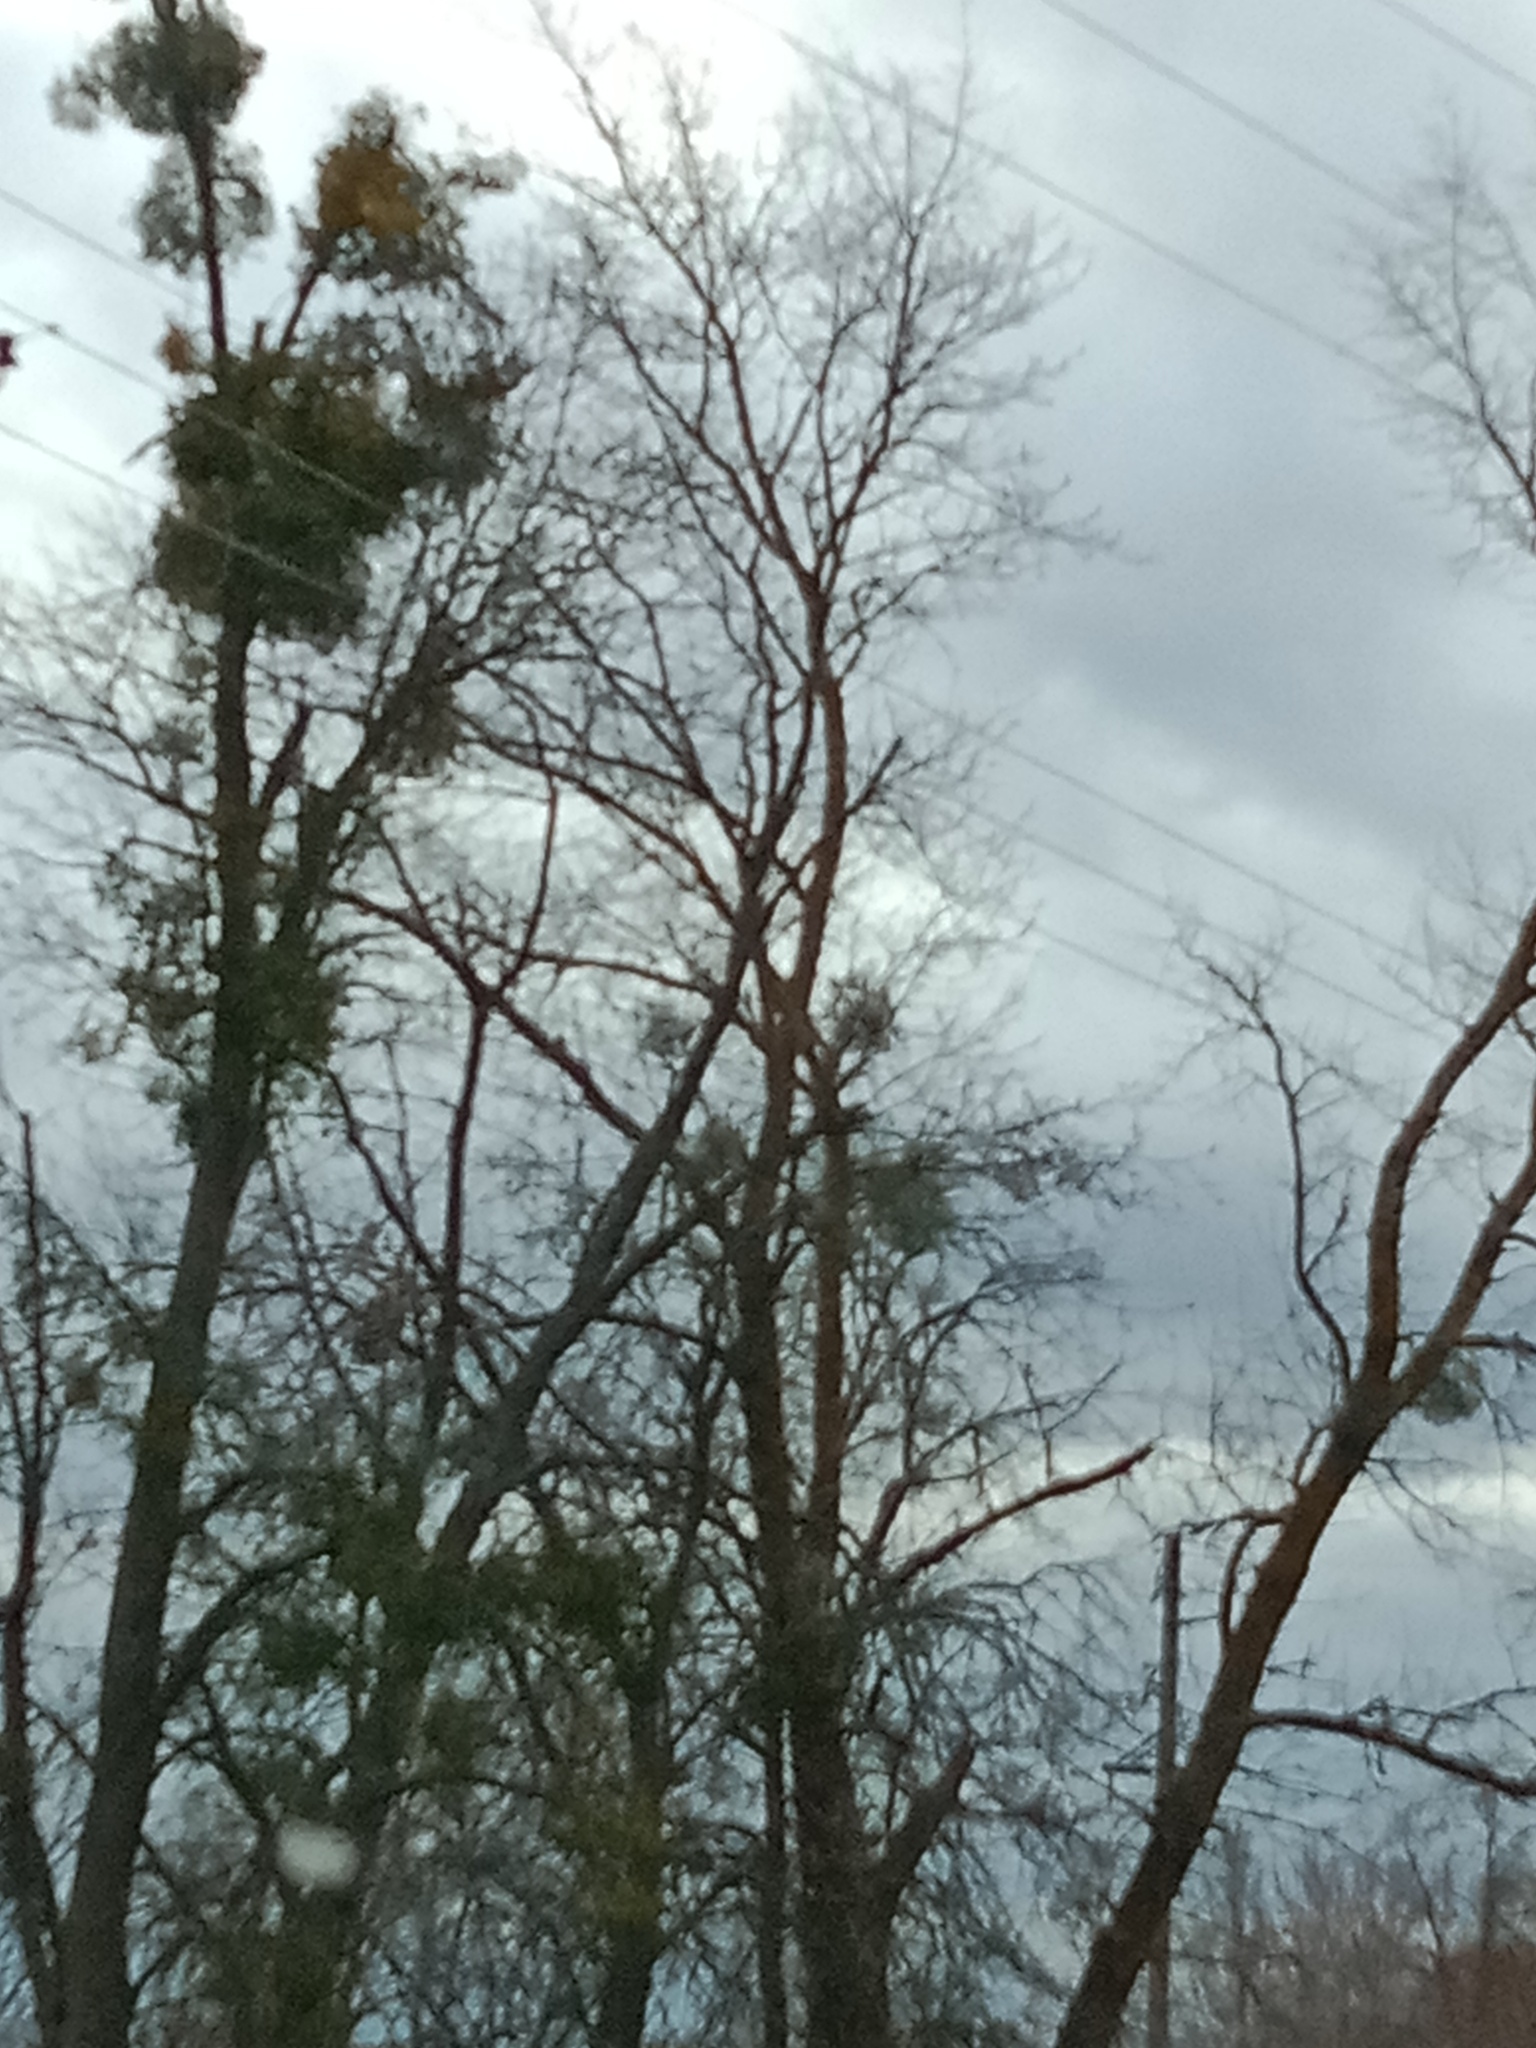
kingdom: Plantae
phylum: Tracheophyta
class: Magnoliopsida
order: Santalales
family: Viscaceae
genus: Viscum
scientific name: Viscum album
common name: Mistletoe
